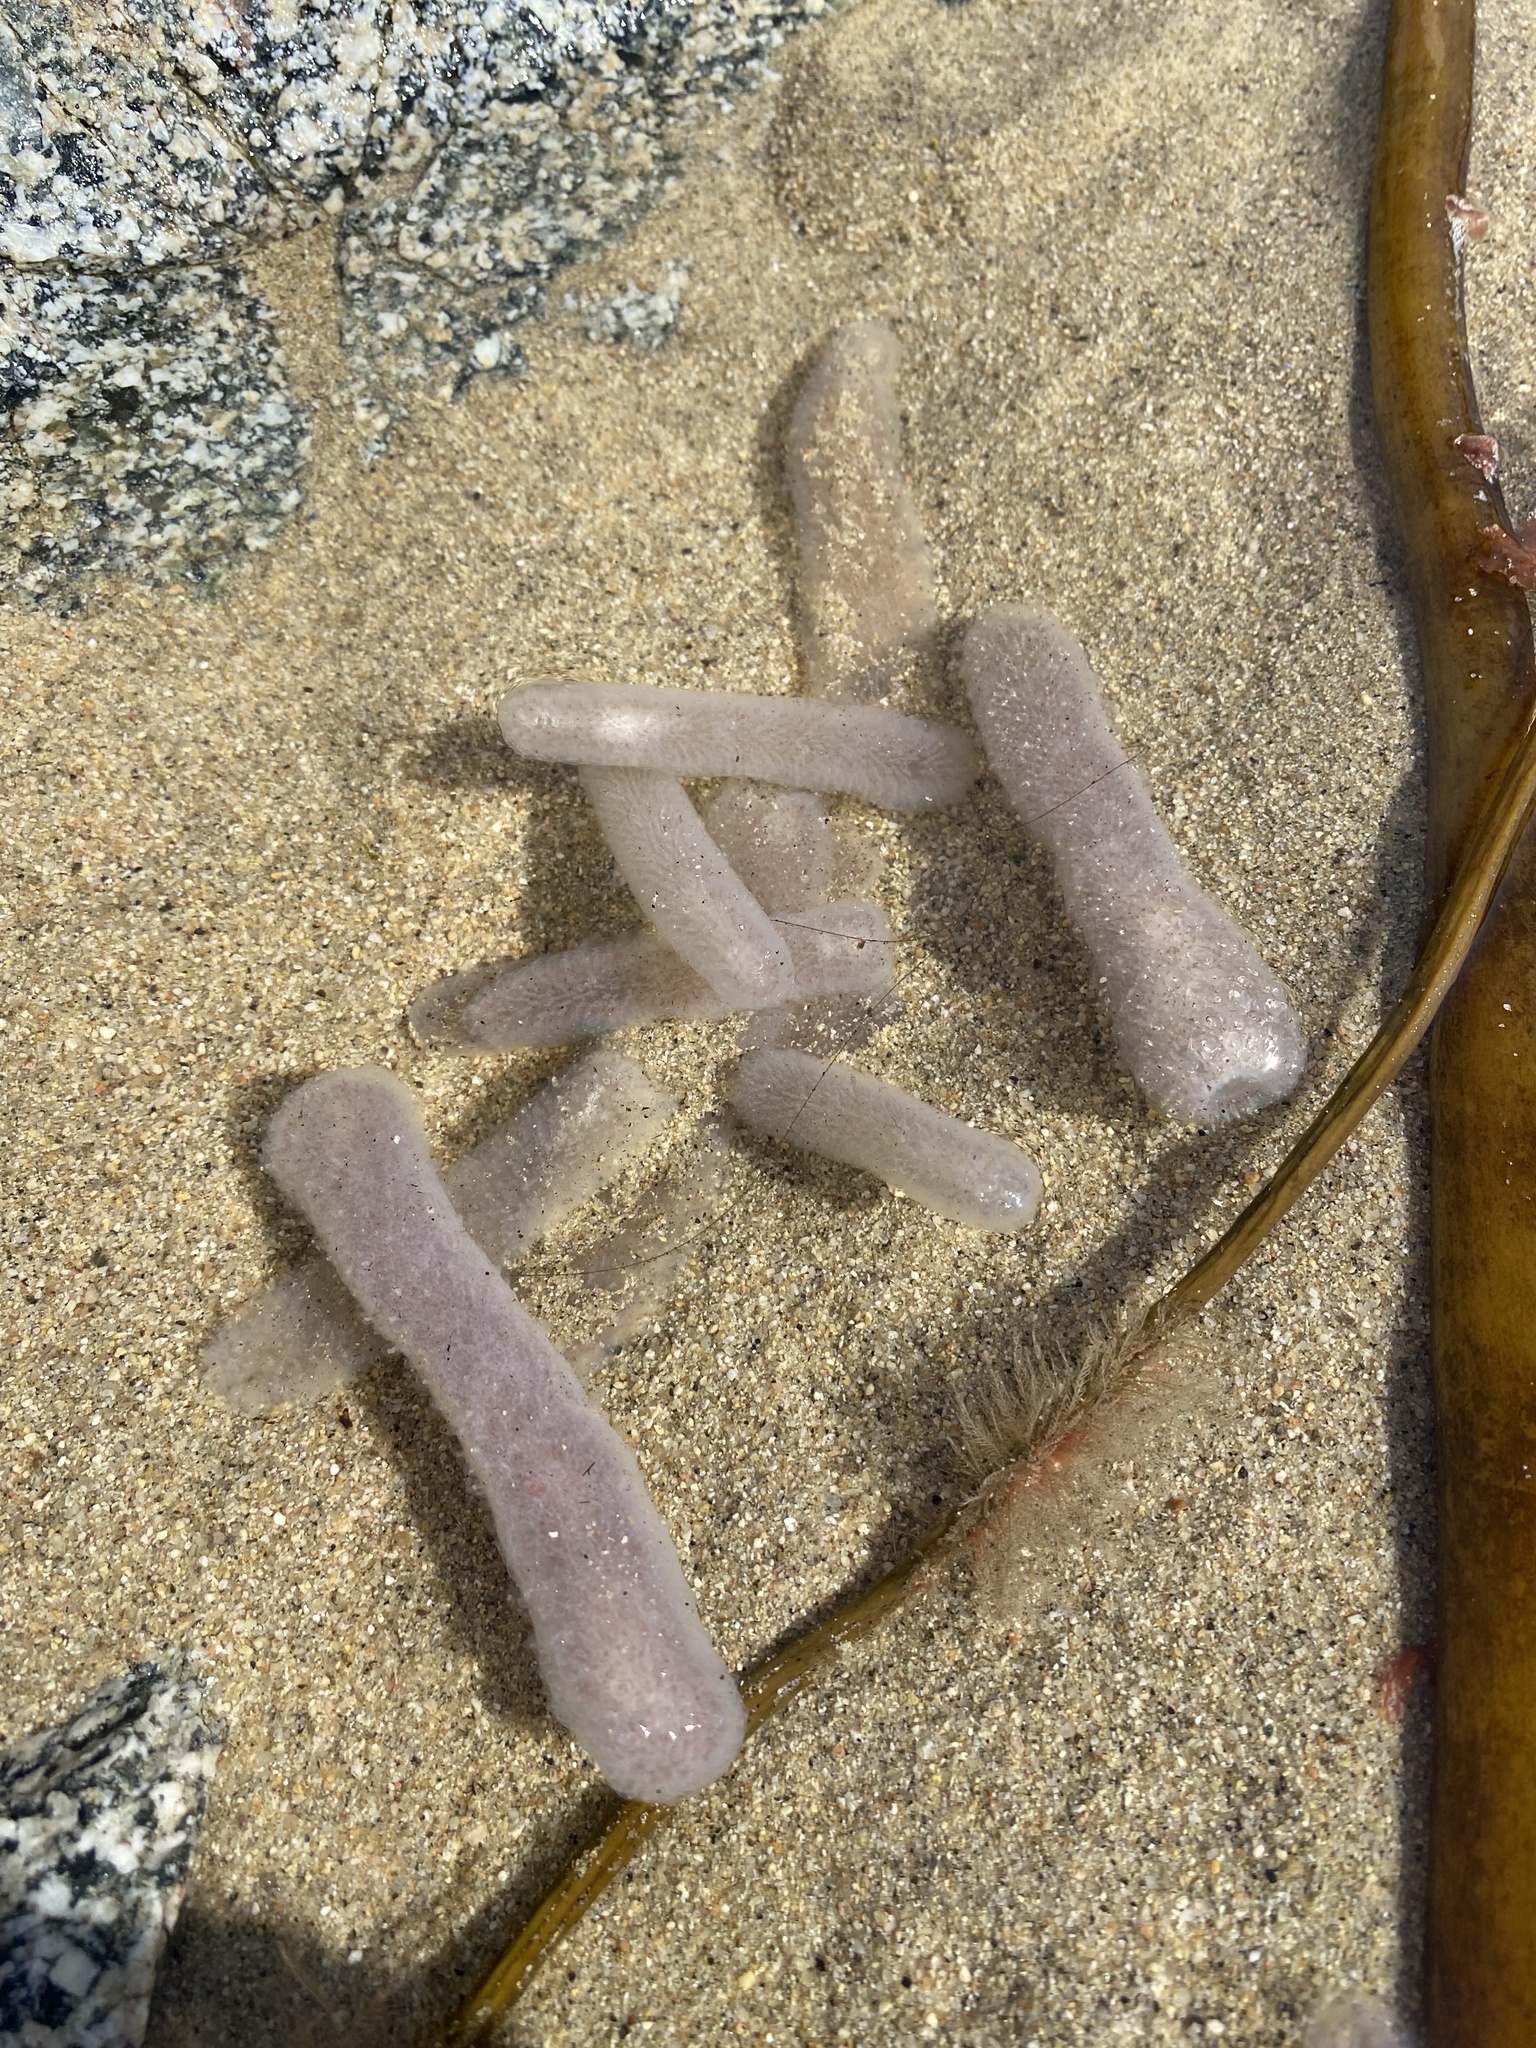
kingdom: Animalia
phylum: Chordata
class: Thaliacea
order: Pyrosomatida
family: Pyrosomatidae
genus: Pyrosoma
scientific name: Pyrosoma atlanticum
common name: Atlantic pyrosomes
